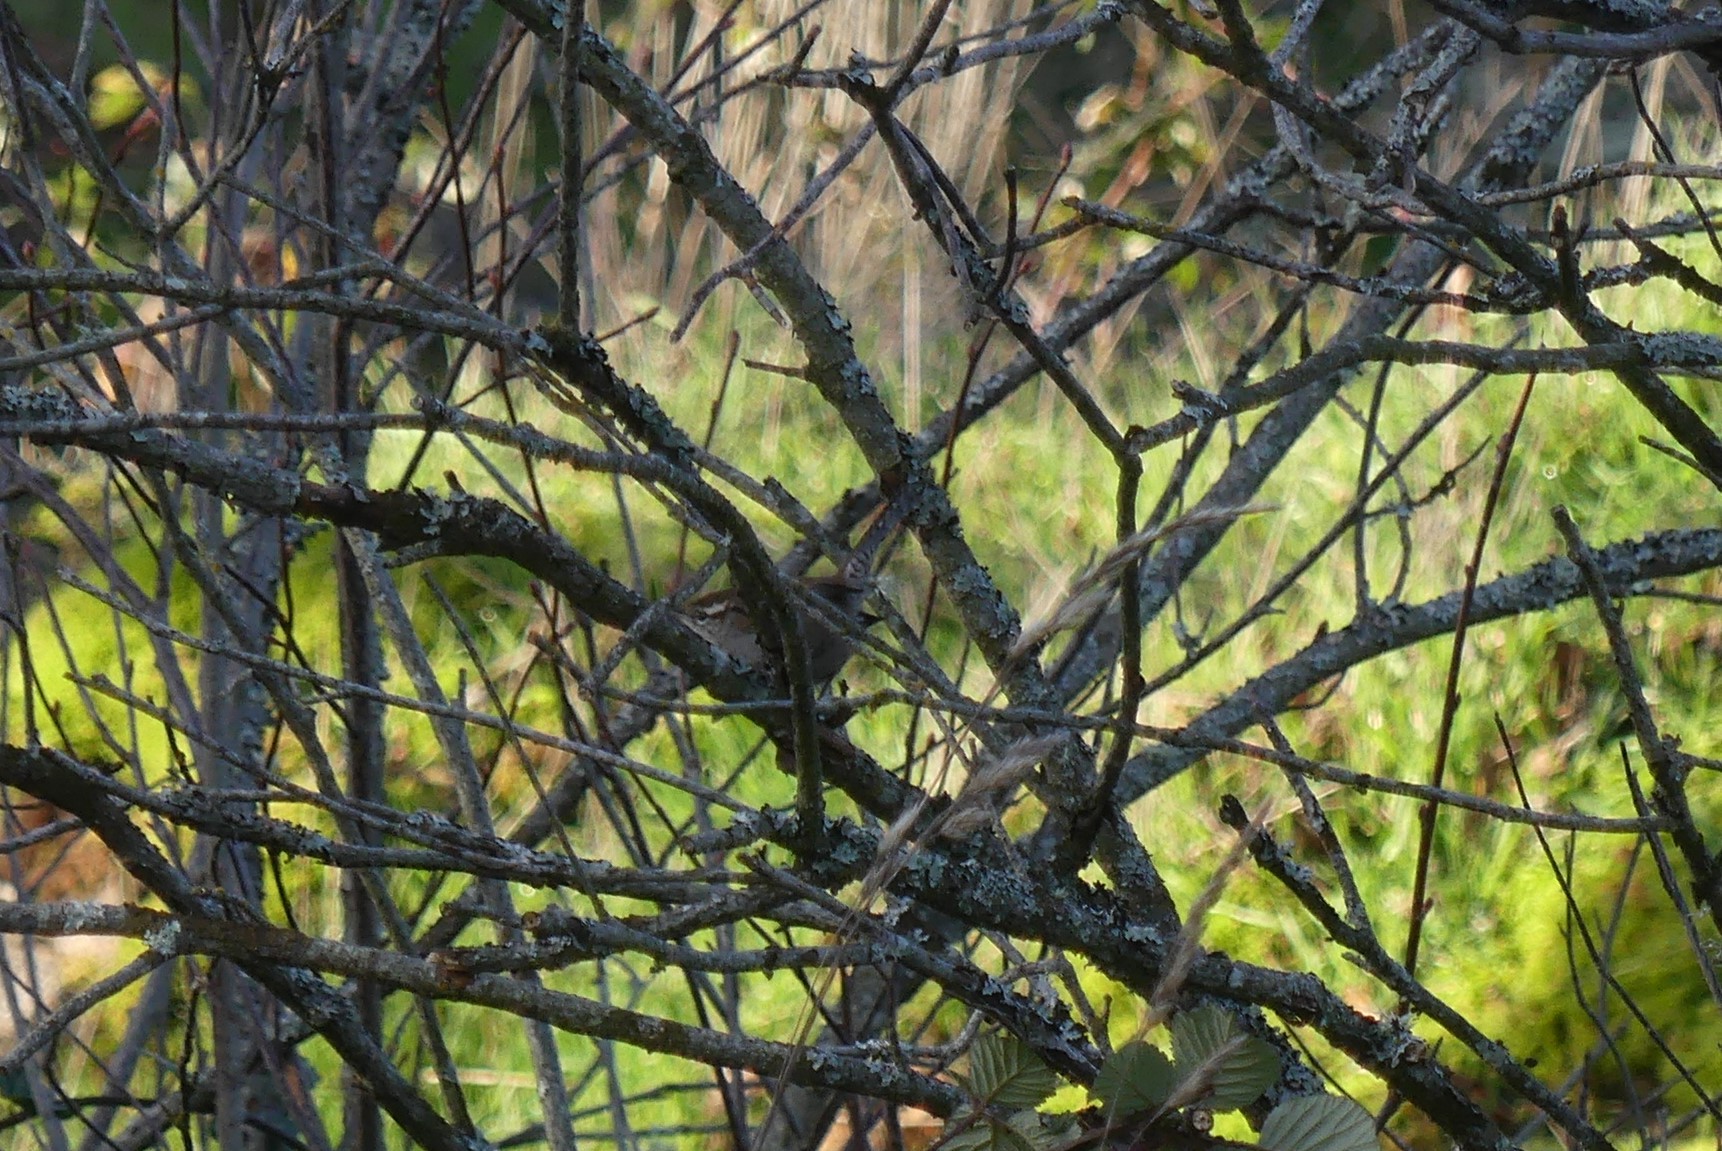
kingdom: Animalia
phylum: Chordata
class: Aves
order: Passeriformes
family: Troglodytidae
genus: Thryomanes
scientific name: Thryomanes bewickii
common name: Bewick's wren
